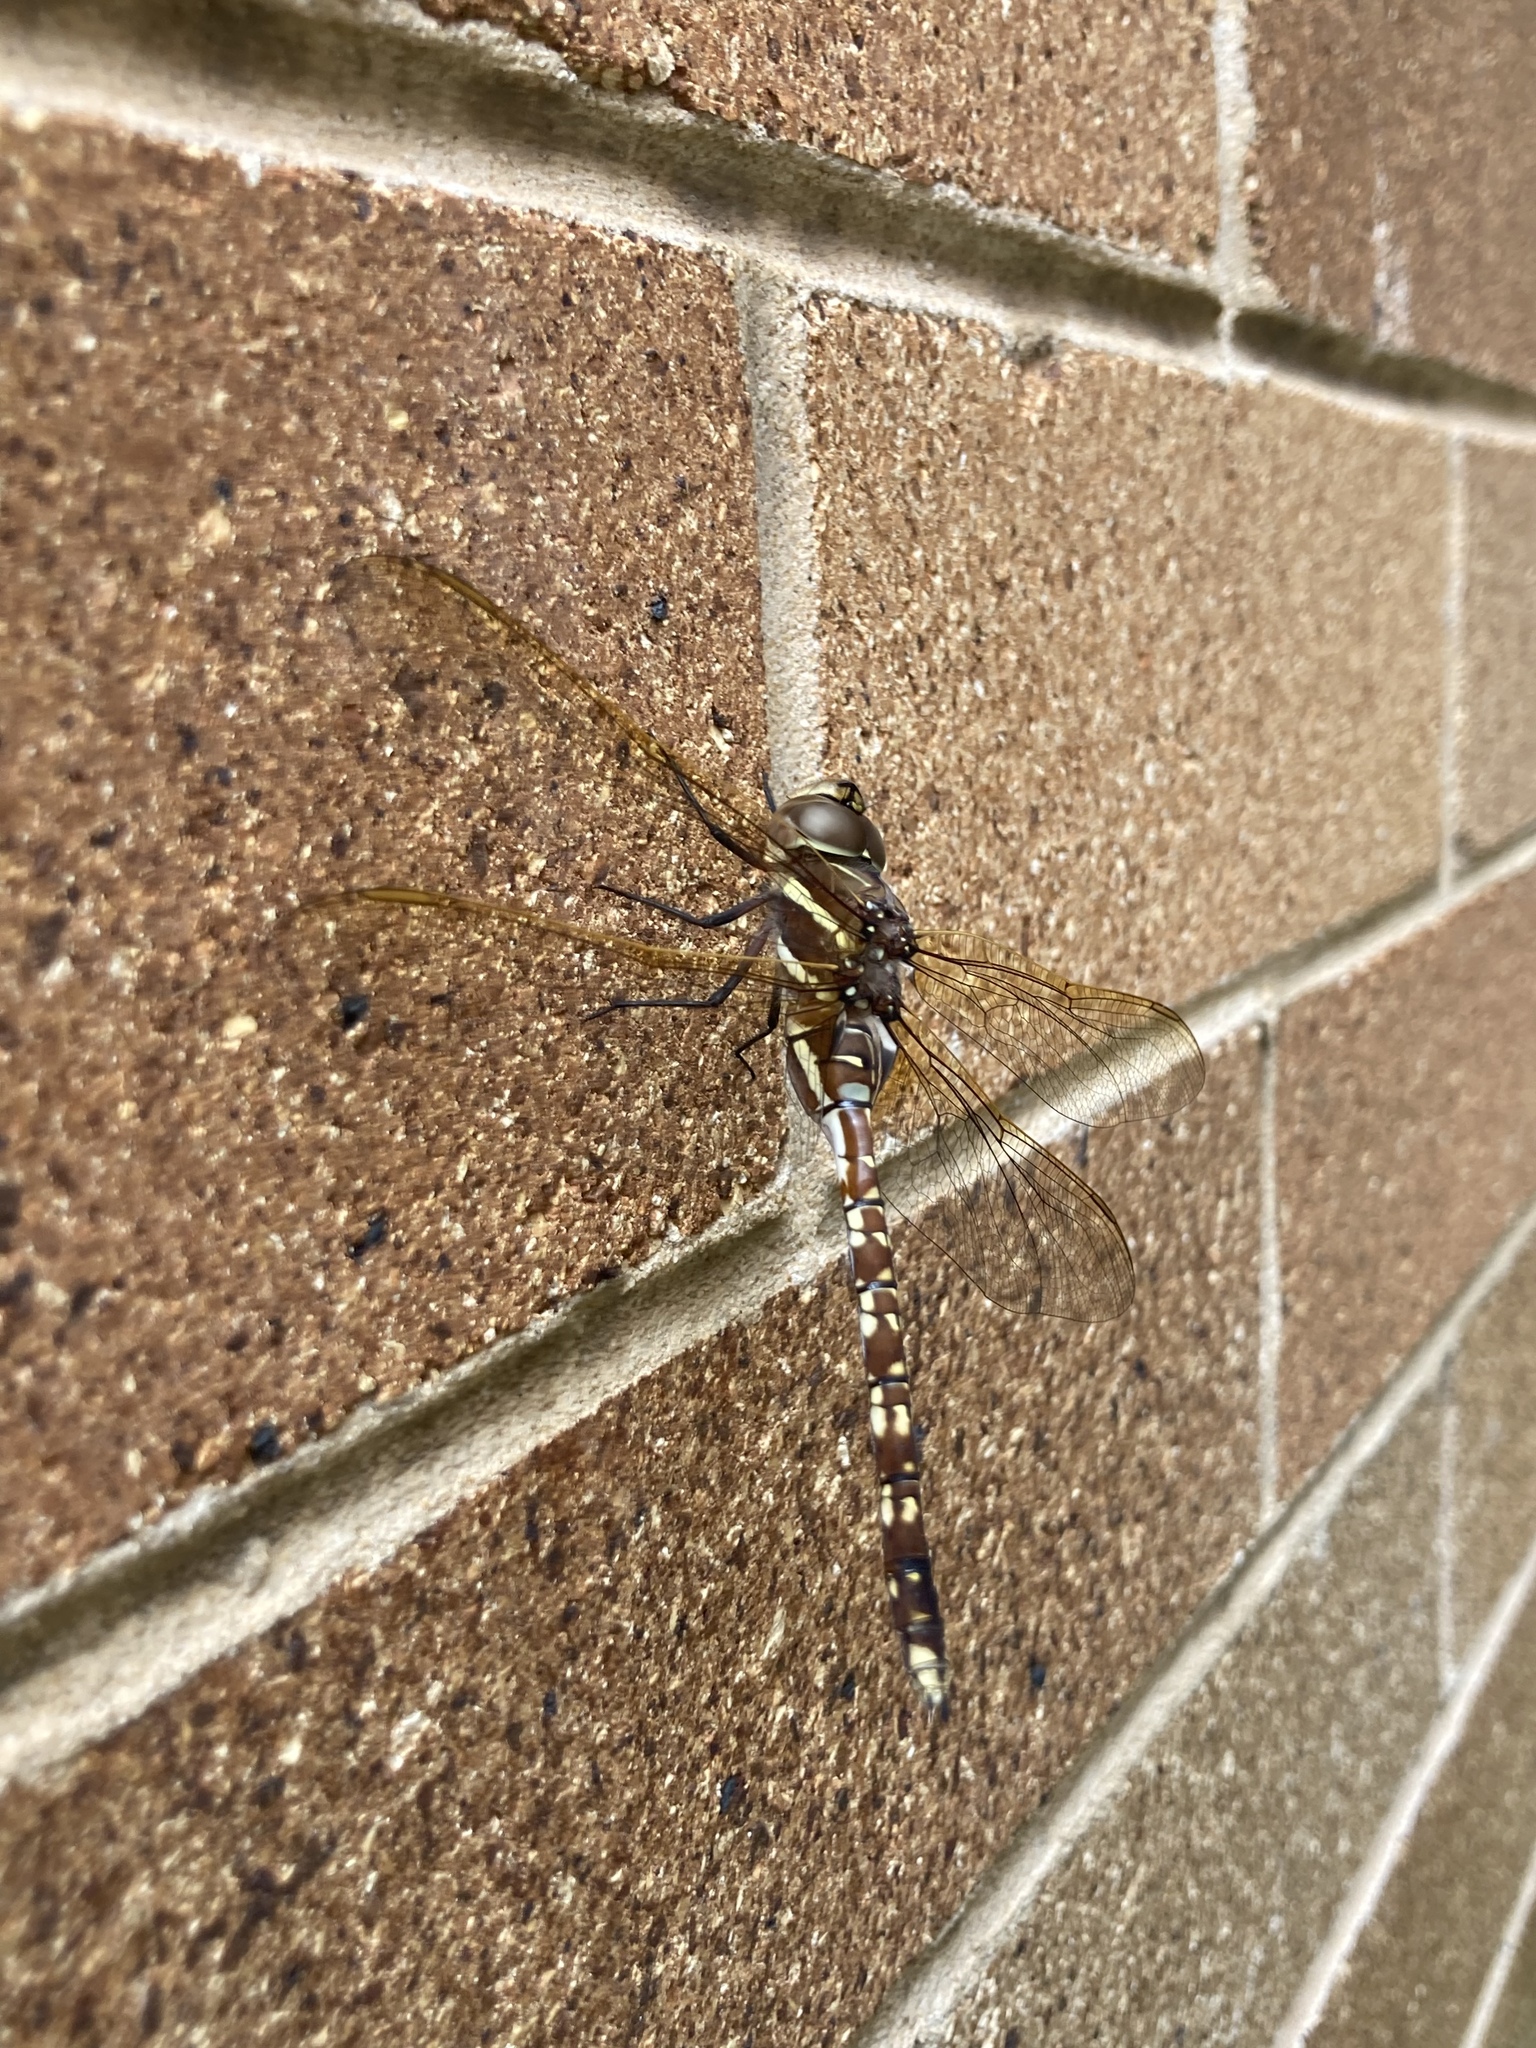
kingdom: Animalia
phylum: Arthropoda
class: Insecta
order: Odonata
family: Aeshnidae
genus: Aeshna
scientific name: Aeshna brevistyla
